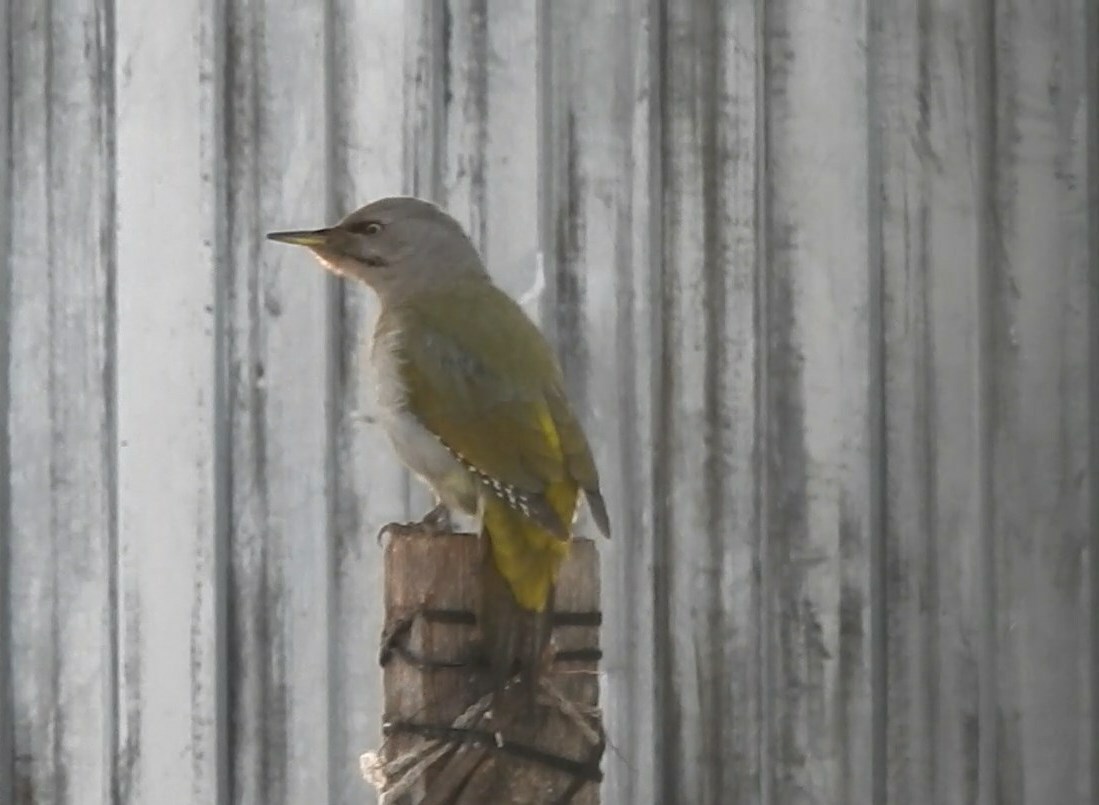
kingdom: Animalia
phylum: Chordata
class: Aves
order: Piciformes
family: Picidae
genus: Picus
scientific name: Picus canus
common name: Grey-headed woodpecker
